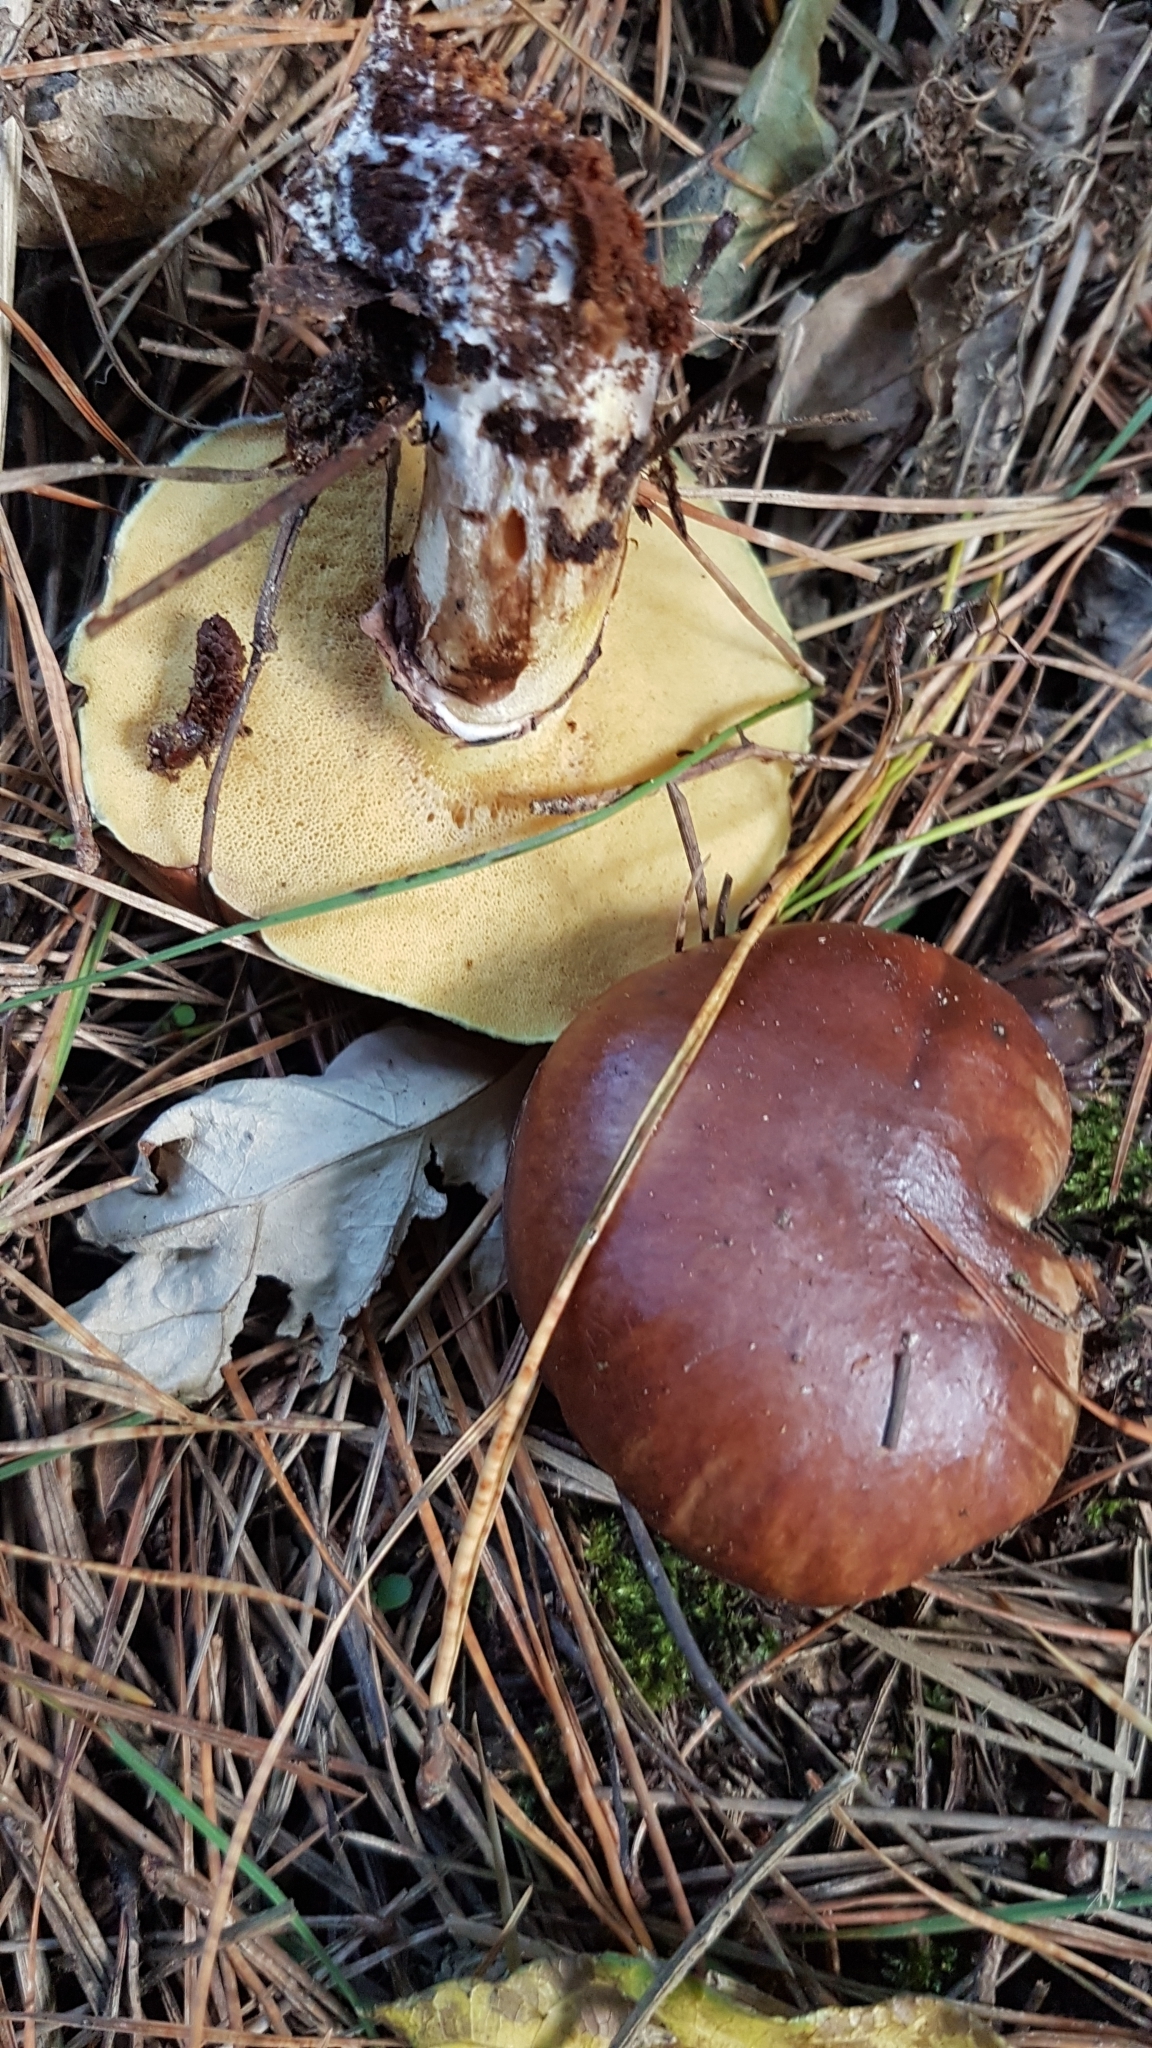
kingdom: Fungi
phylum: Basidiomycota
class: Agaricomycetes
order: Boletales
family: Suillaceae
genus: Suillus
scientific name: Suillus luteus
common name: Slippery jack
